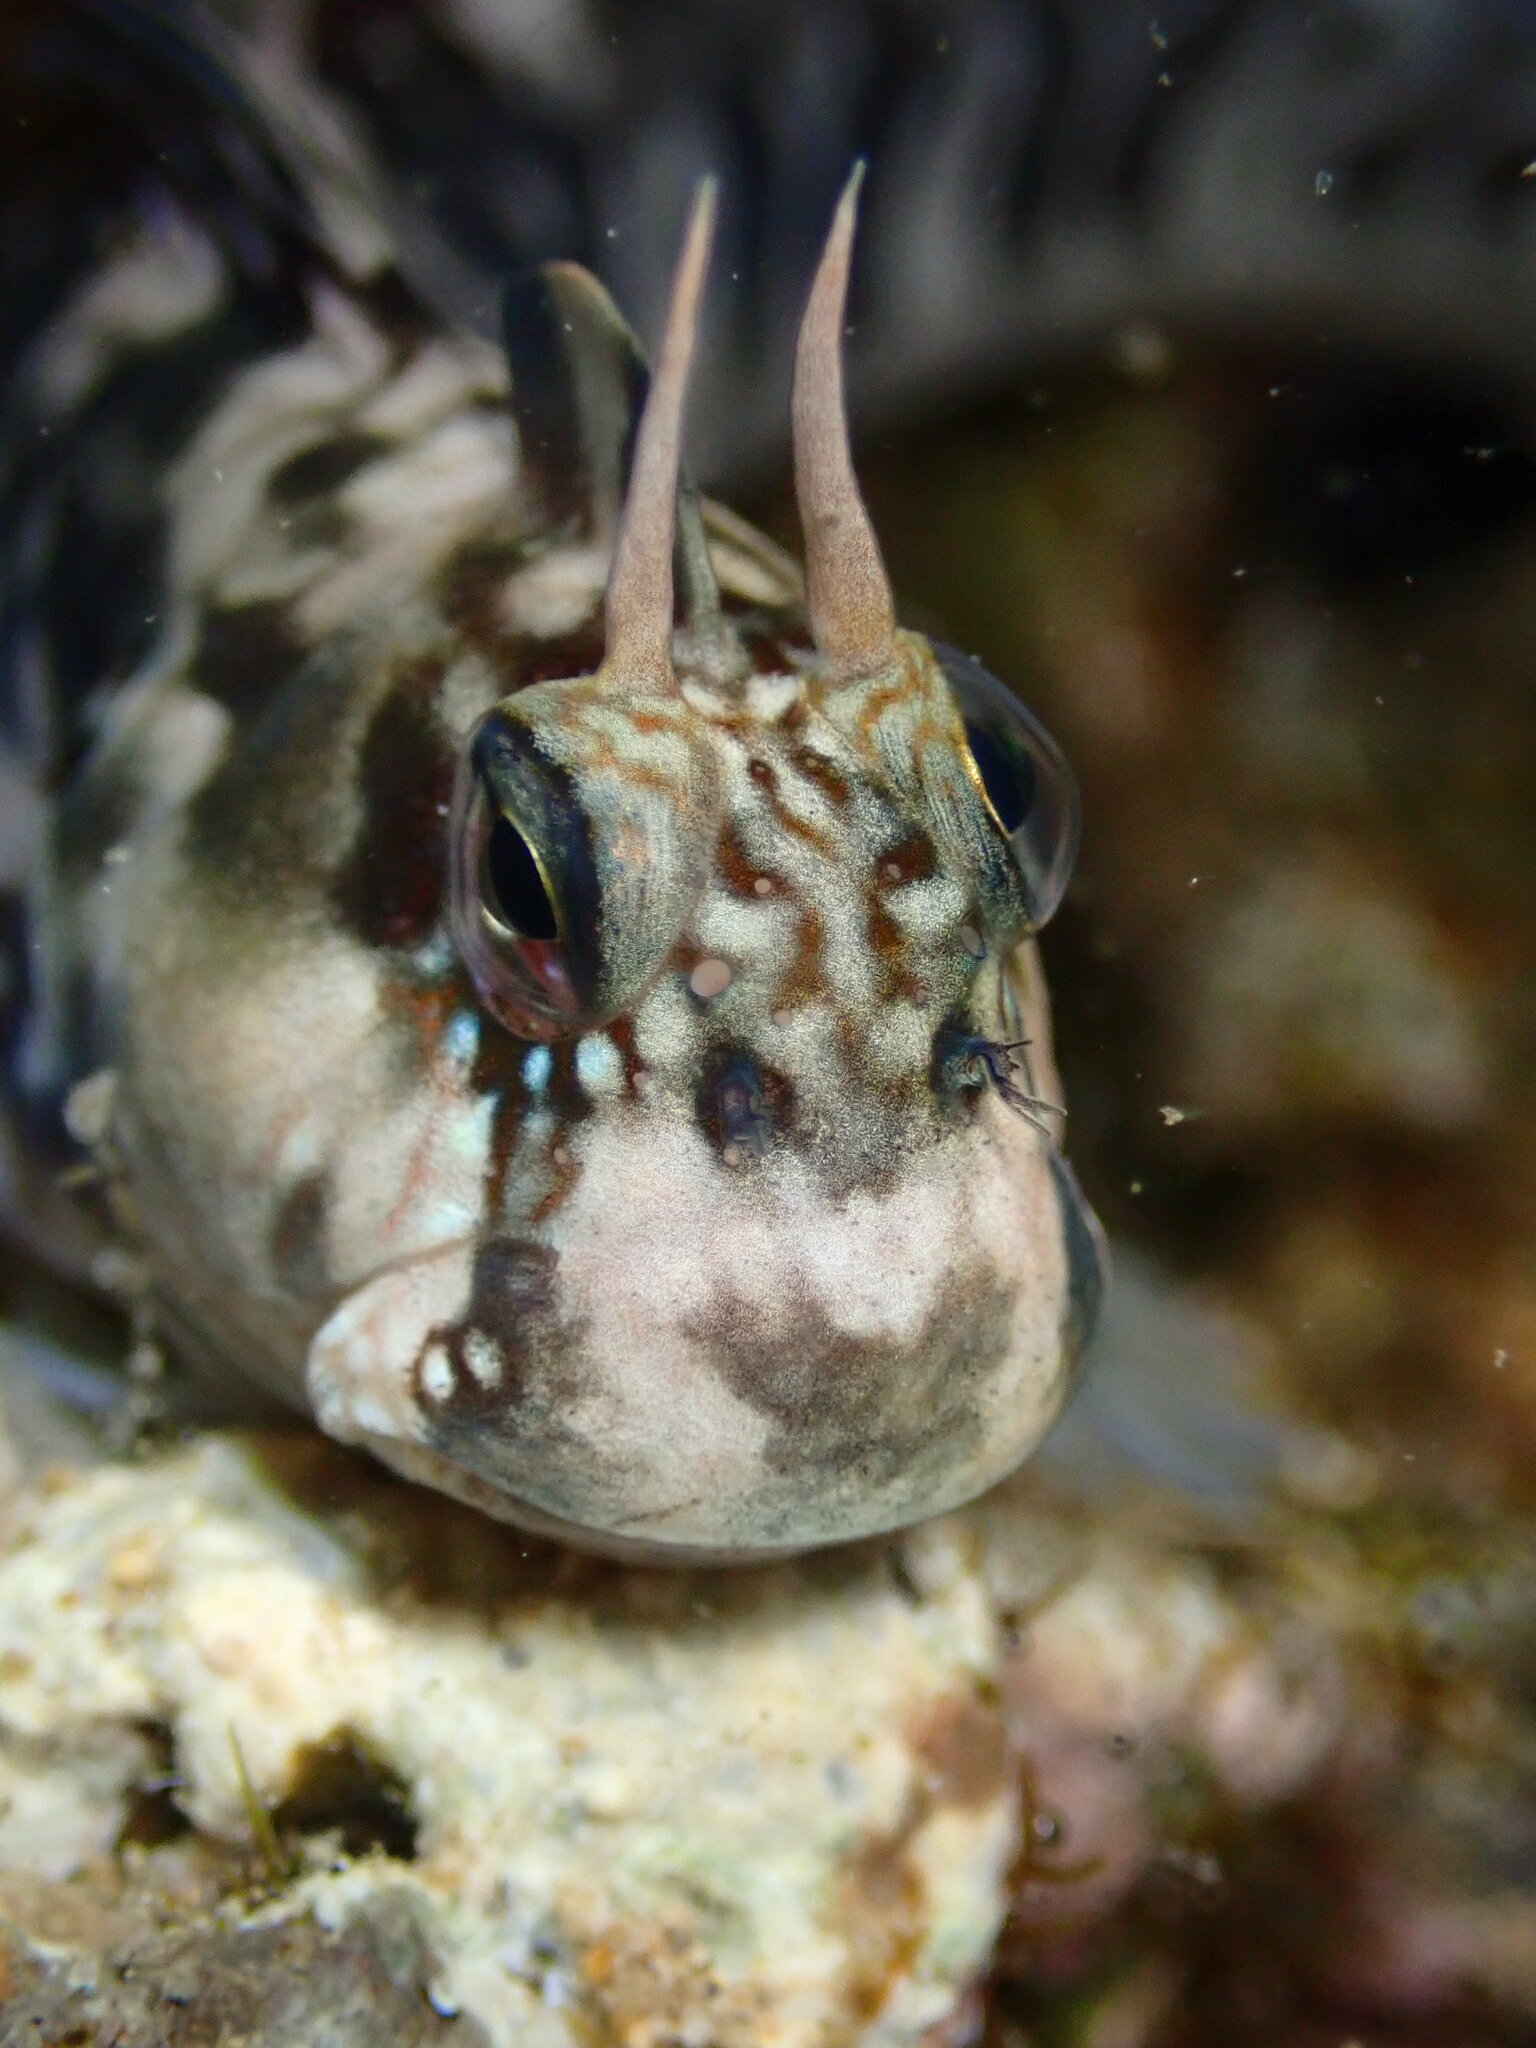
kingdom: Animalia
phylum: Chordata
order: Perciformes
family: Blenniidae
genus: Istiblennius
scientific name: Istiblennius zebra
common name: Zebra blenny
